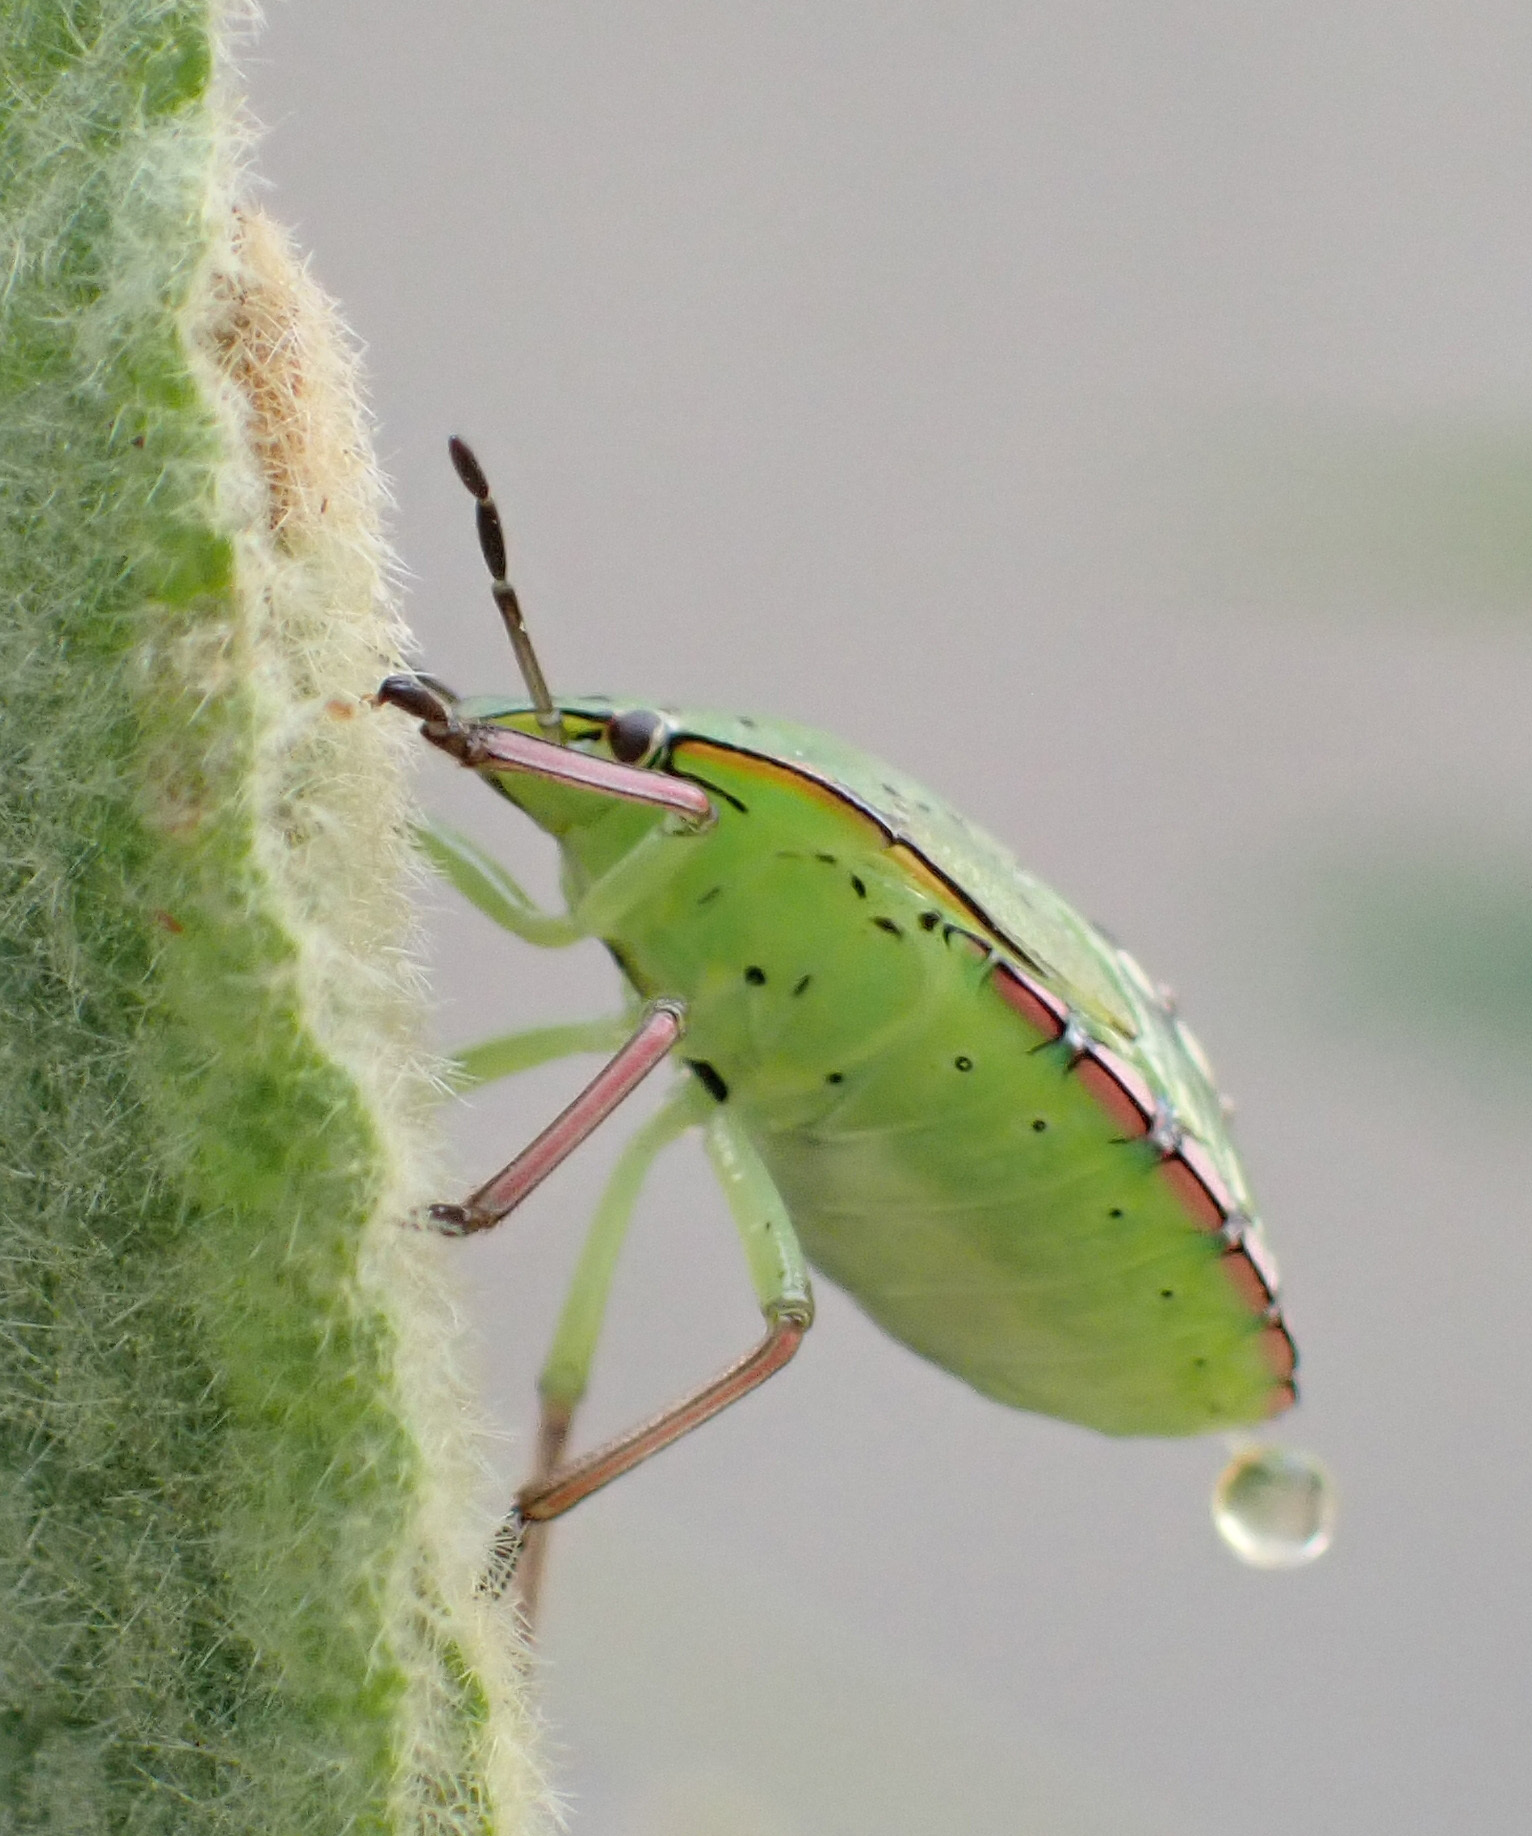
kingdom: Animalia
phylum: Arthropoda
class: Insecta
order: Hemiptera
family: Pentatomidae
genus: Nezara
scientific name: Nezara viridula
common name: Southern green stink bug
